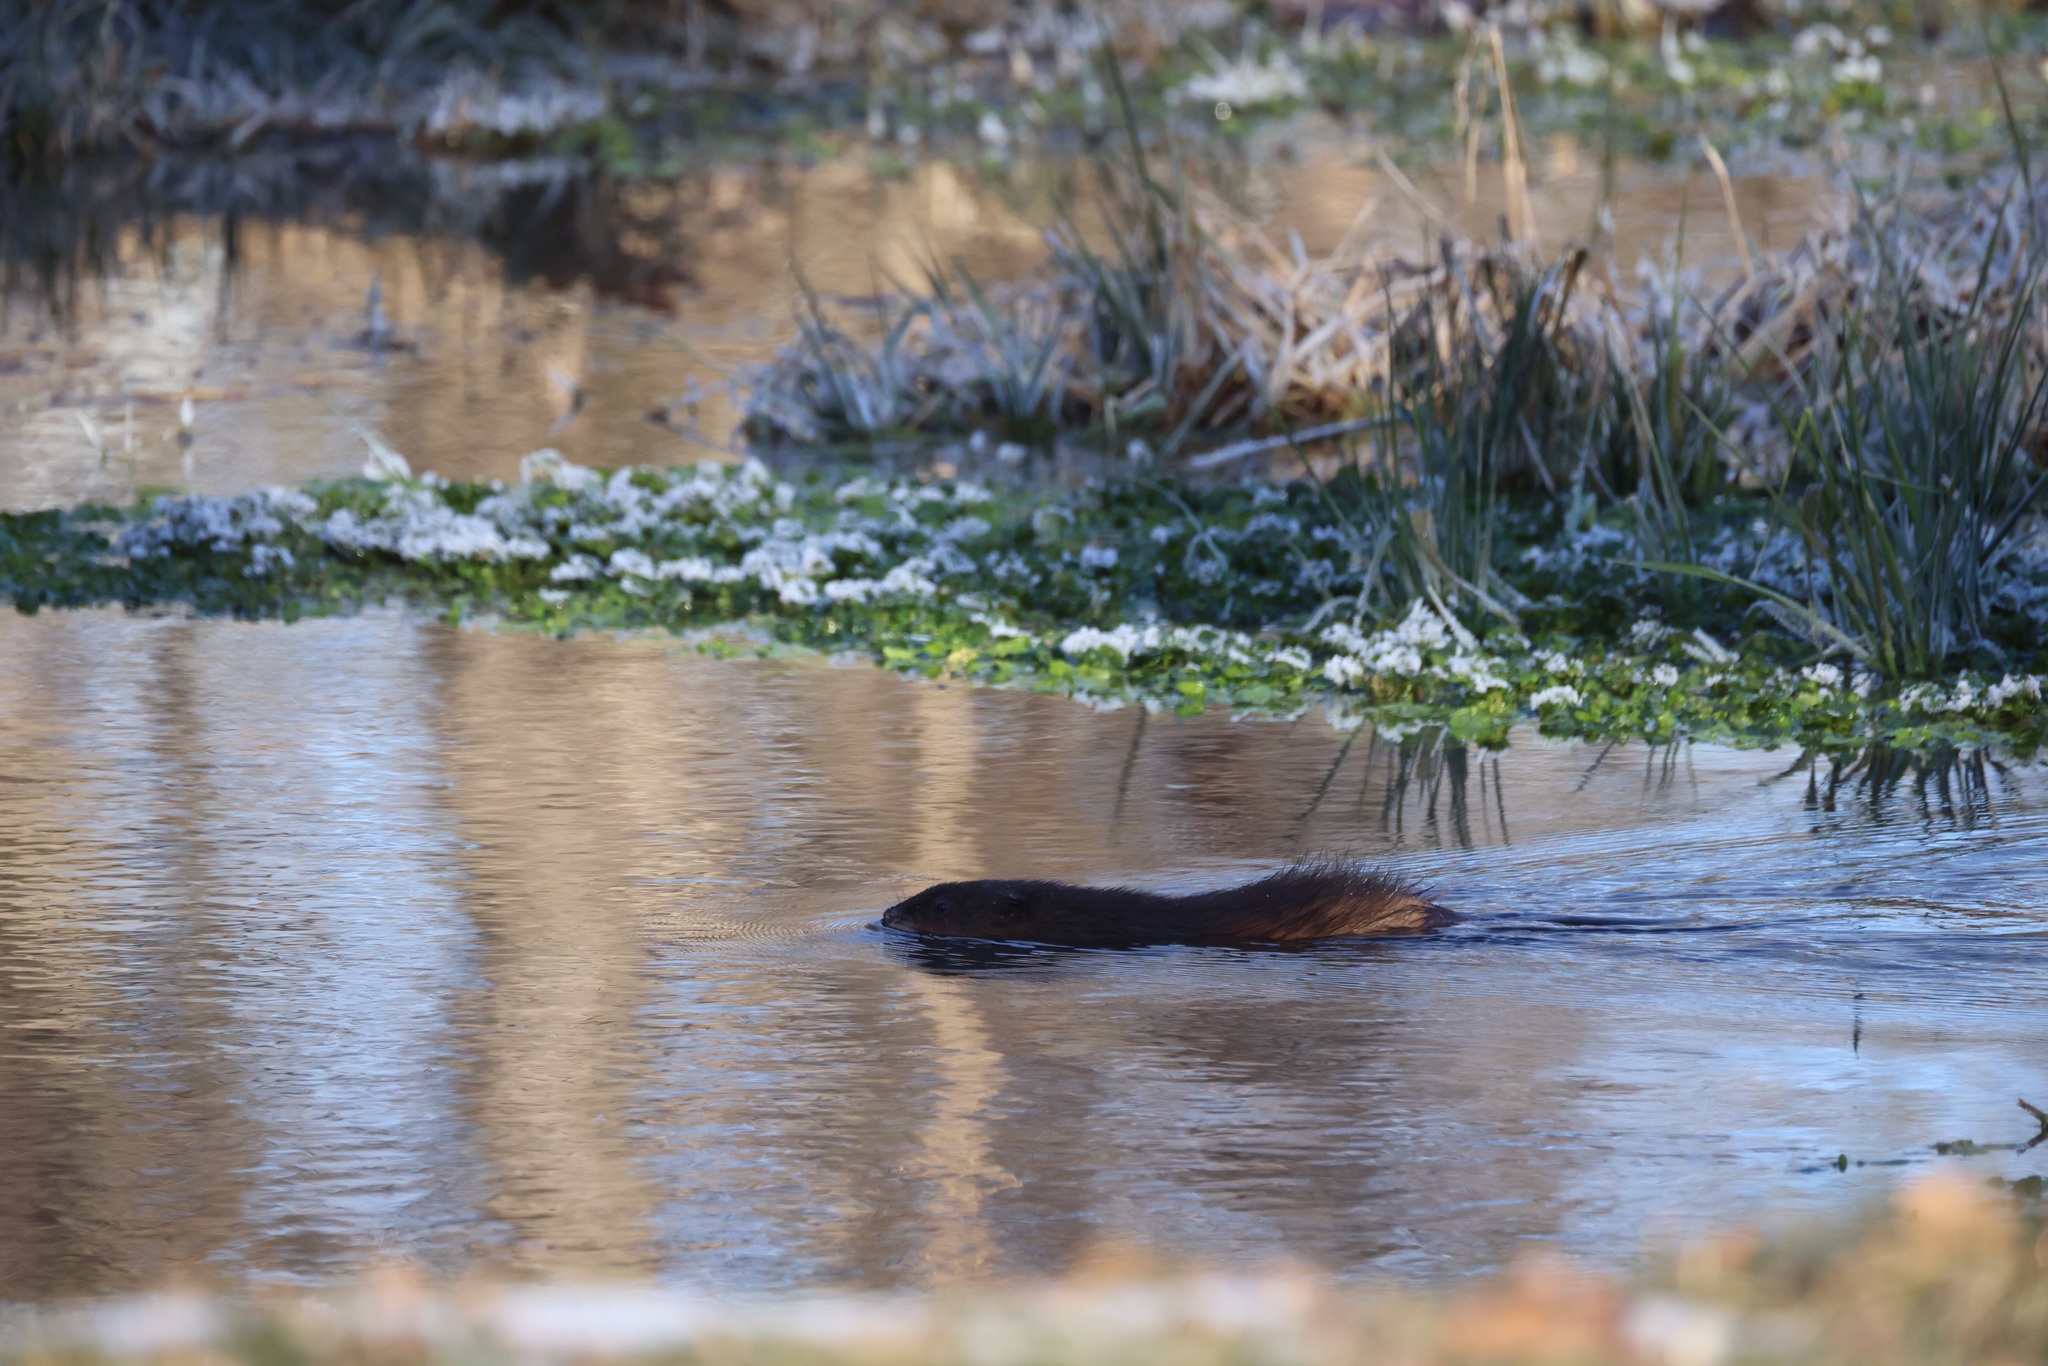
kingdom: Animalia
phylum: Chordata
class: Mammalia
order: Rodentia
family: Cricetidae
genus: Ondatra
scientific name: Ondatra zibethicus
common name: Muskrat
